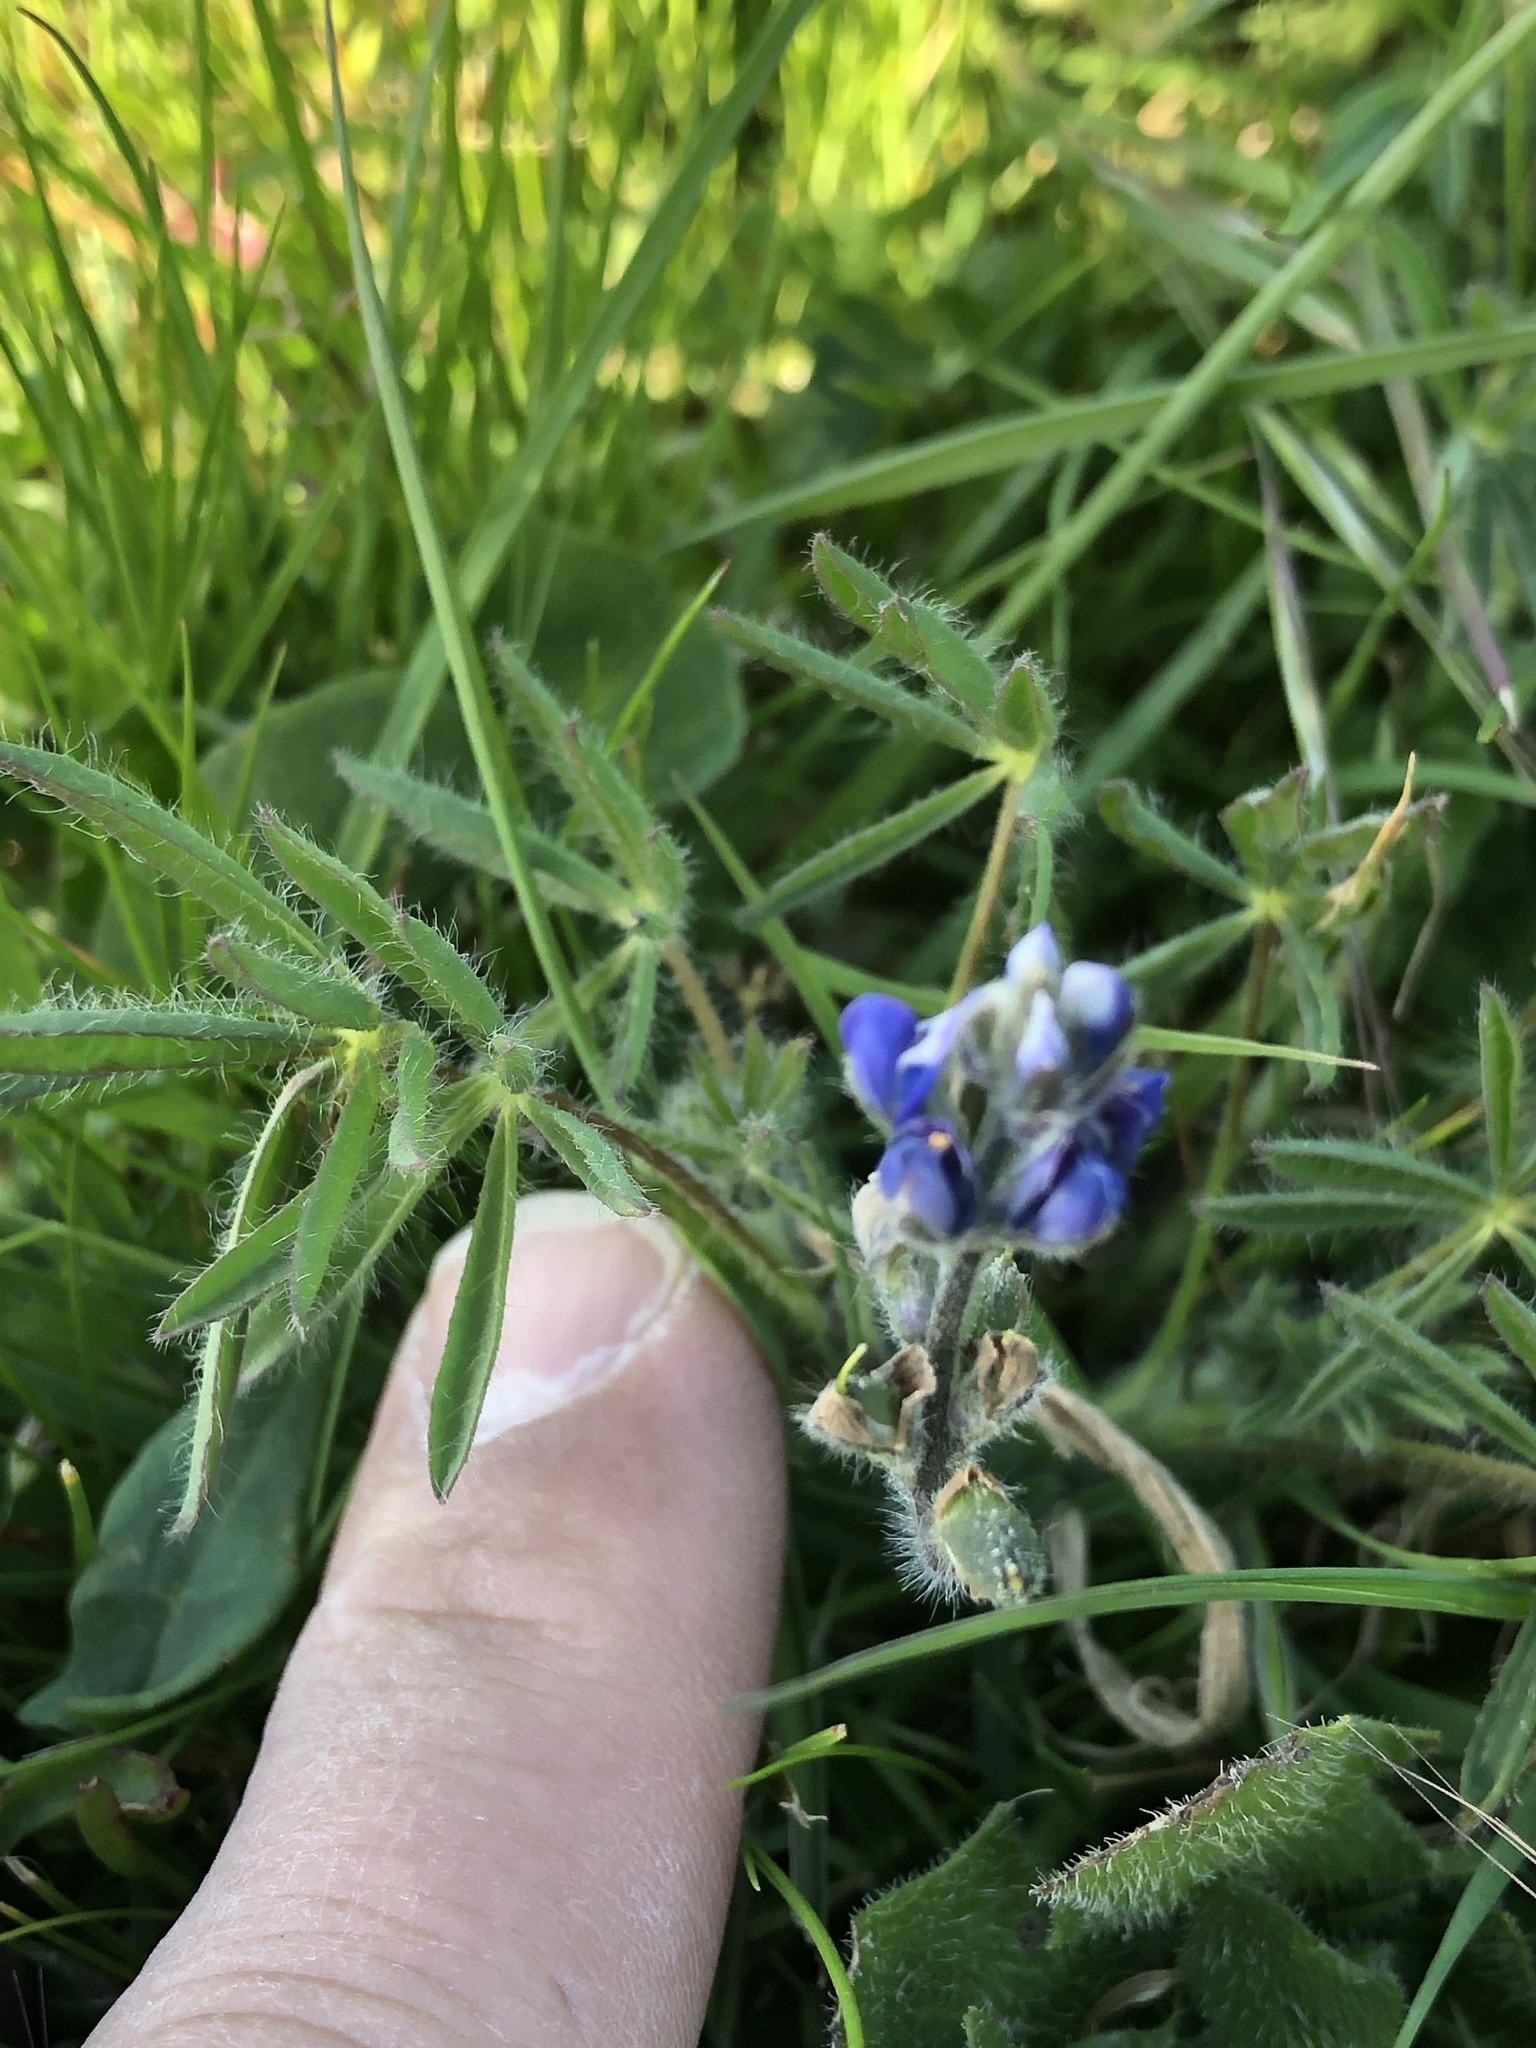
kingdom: Plantae
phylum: Tracheophyta
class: Magnoliopsida
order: Fabales
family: Fabaceae
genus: Lupinus
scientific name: Lupinus bicolor
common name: Miniature lupine
